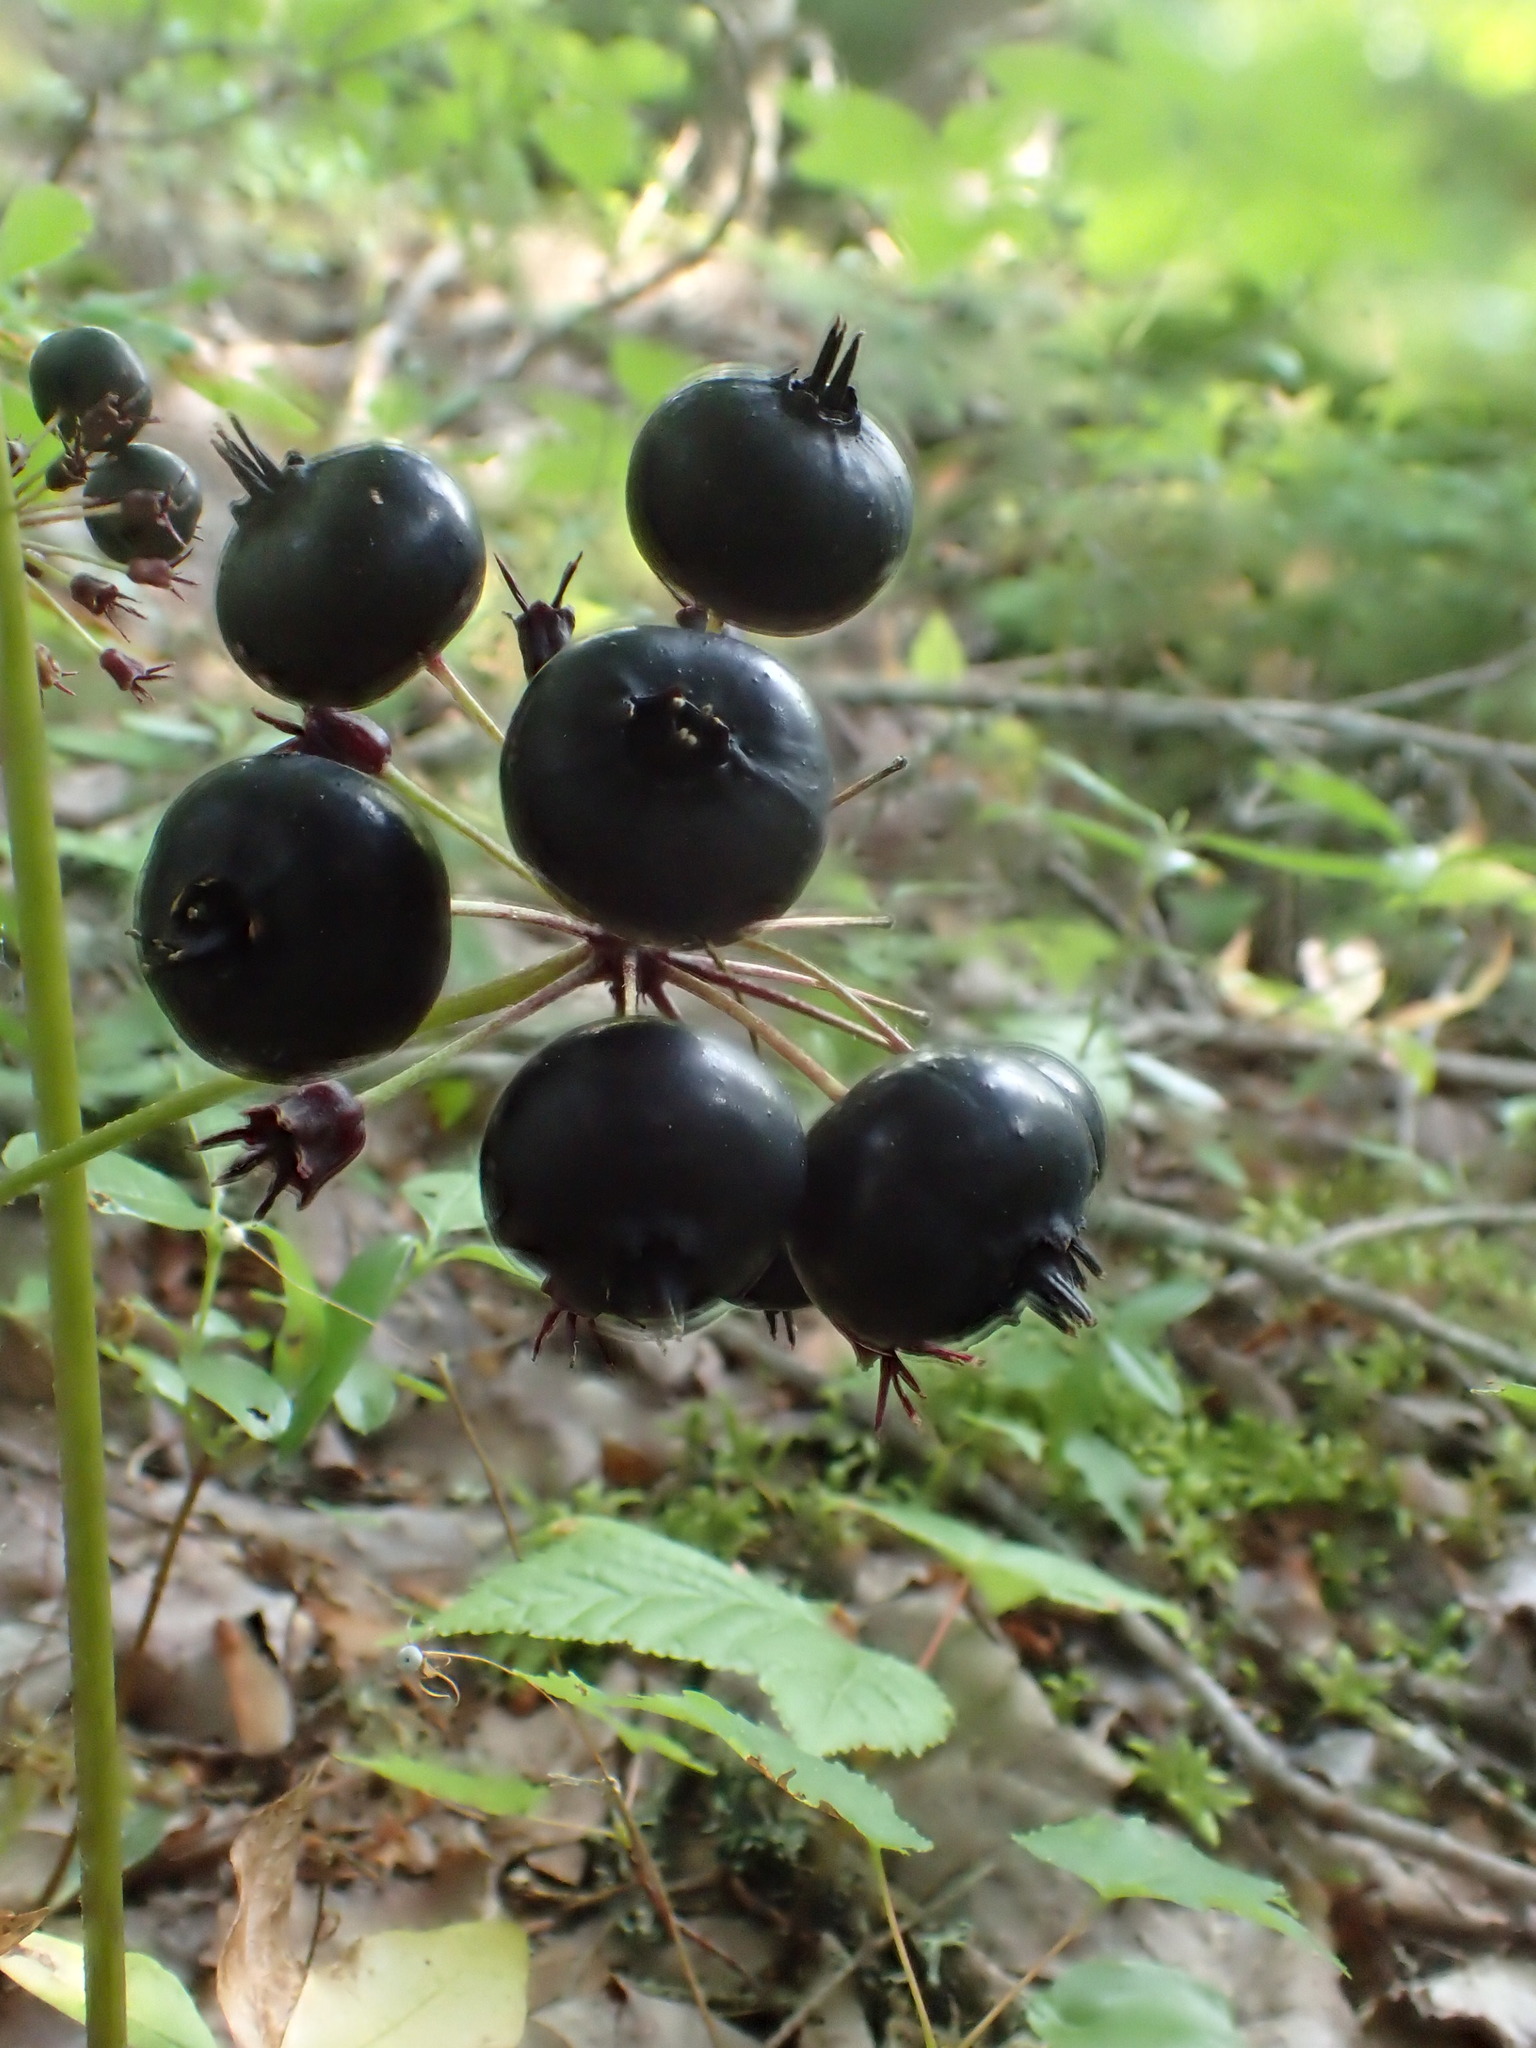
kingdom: Plantae
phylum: Tracheophyta
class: Magnoliopsida
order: Apiales
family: Araliaceae
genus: Aralia
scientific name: Aralia nudicaulis
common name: Wild sarsaparilla
